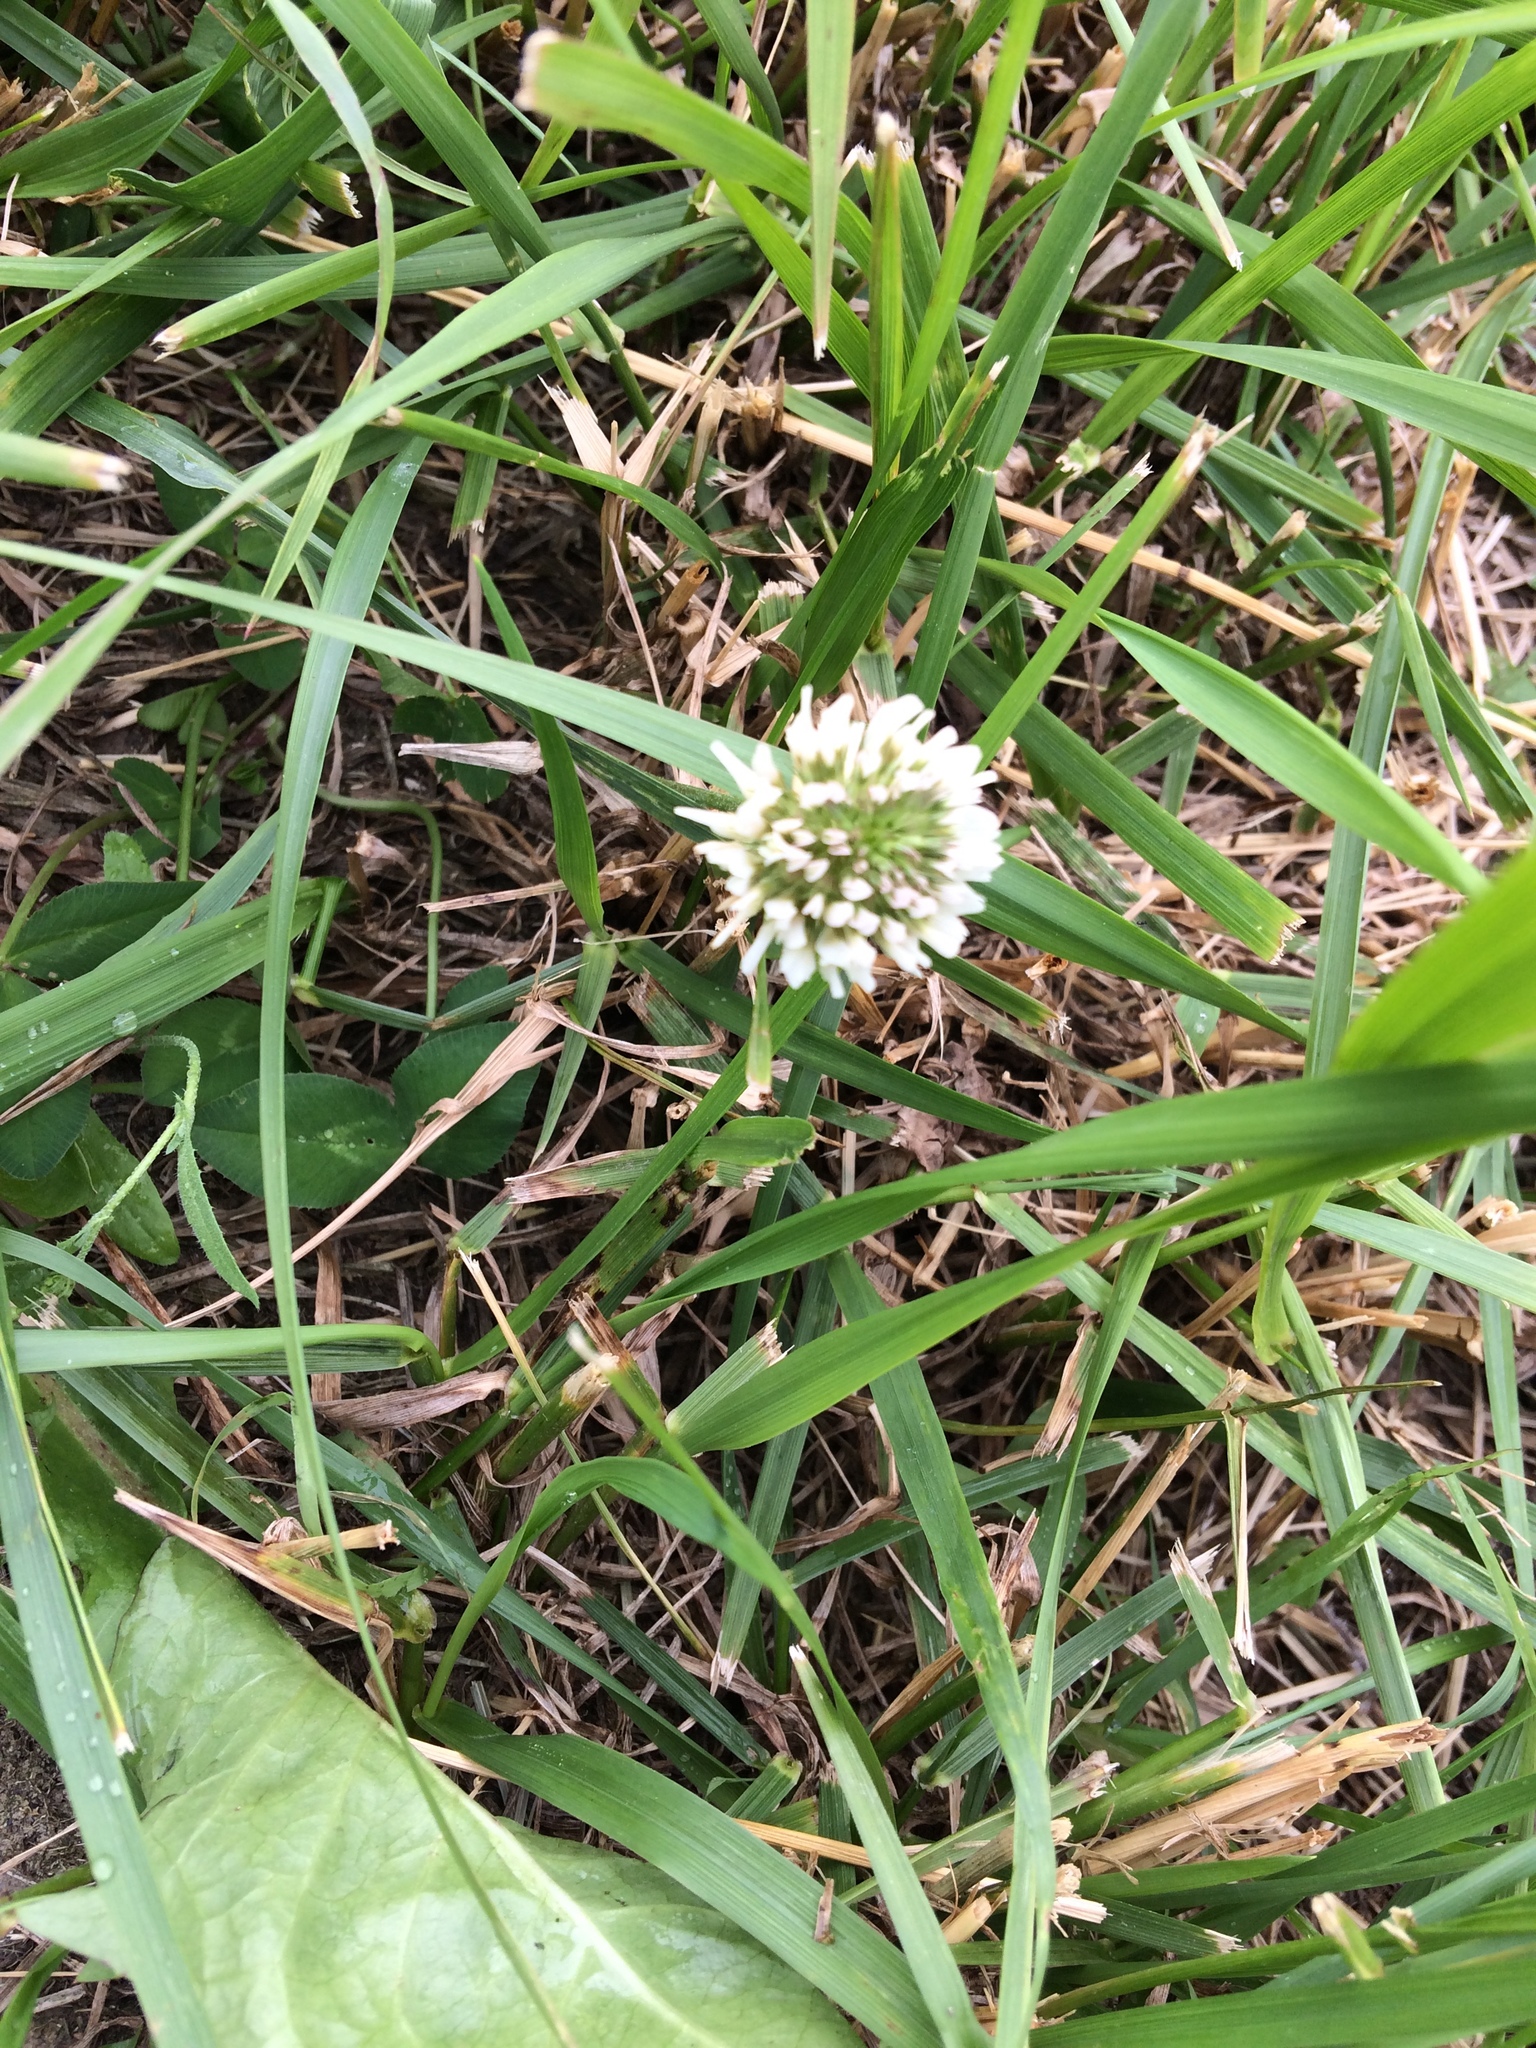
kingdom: Plantae
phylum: Tracheophyta
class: Magnoliopsida
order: Fabales
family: Fabaceae
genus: Trifolium
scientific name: Trifolium repens
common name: White clover
